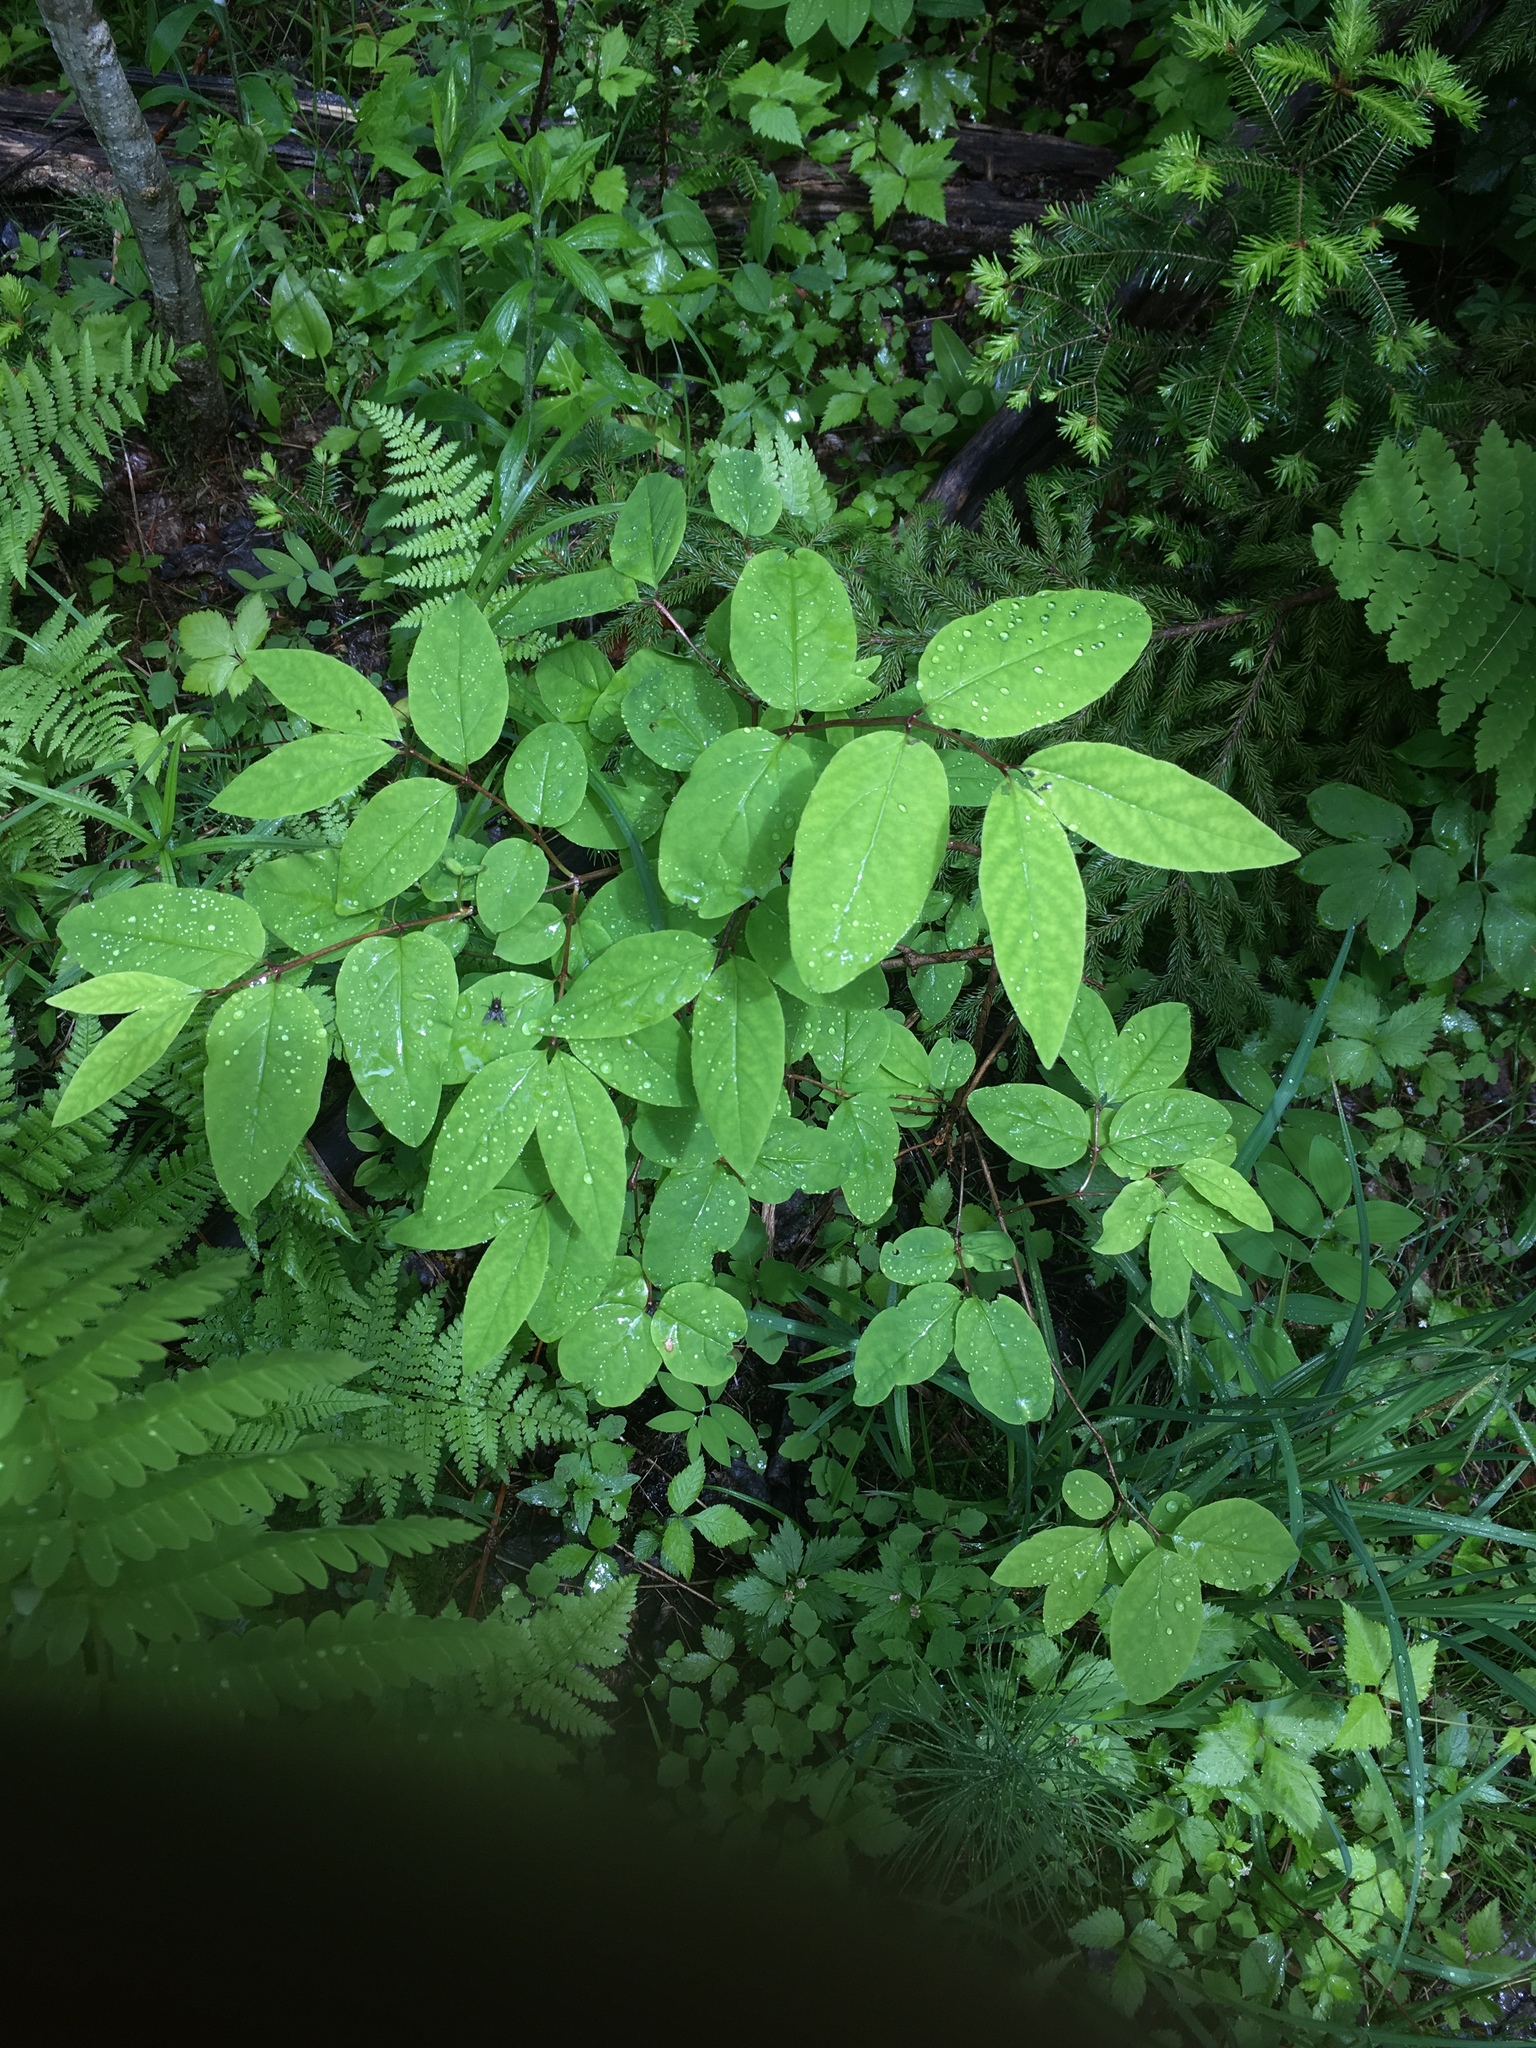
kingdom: Plantae
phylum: Tracheophyta
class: Magnoliopsida
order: Dipsacales
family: Caprifoliaceae
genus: Lonicera
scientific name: Lonicera canadensis
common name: American fly-honeysuckle
